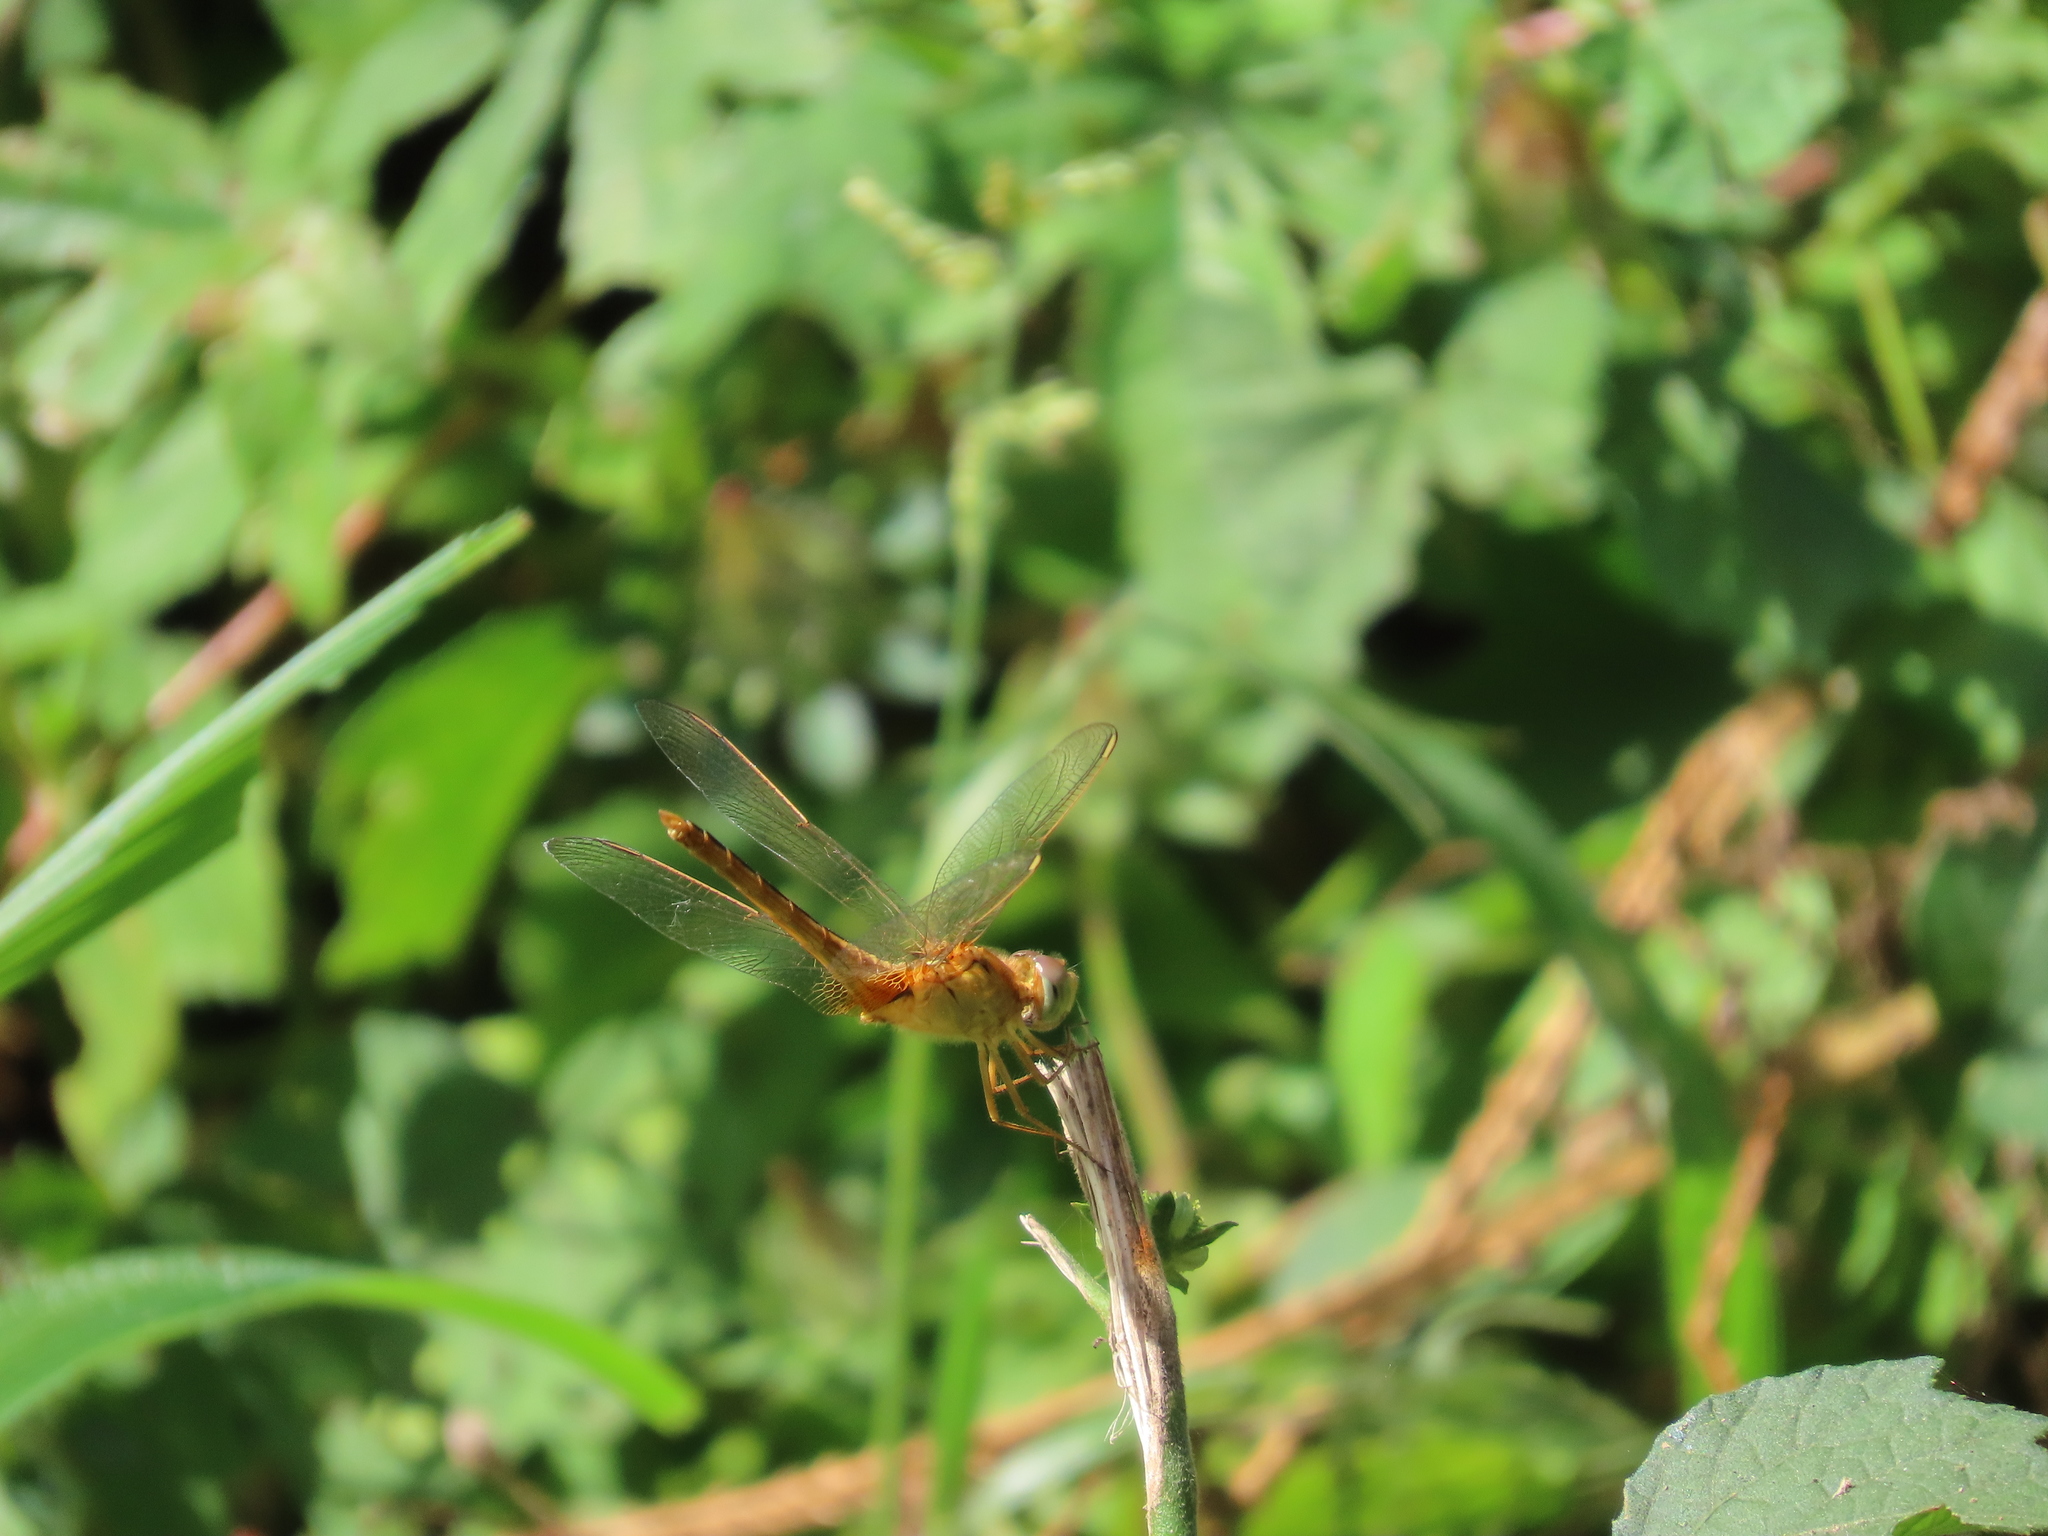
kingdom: Animalia
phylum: Arthropoda
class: Insecta
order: Odonata
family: Libellulidae
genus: Crocothemis
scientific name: Crocothemis servilia
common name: Scarlet skimmer
